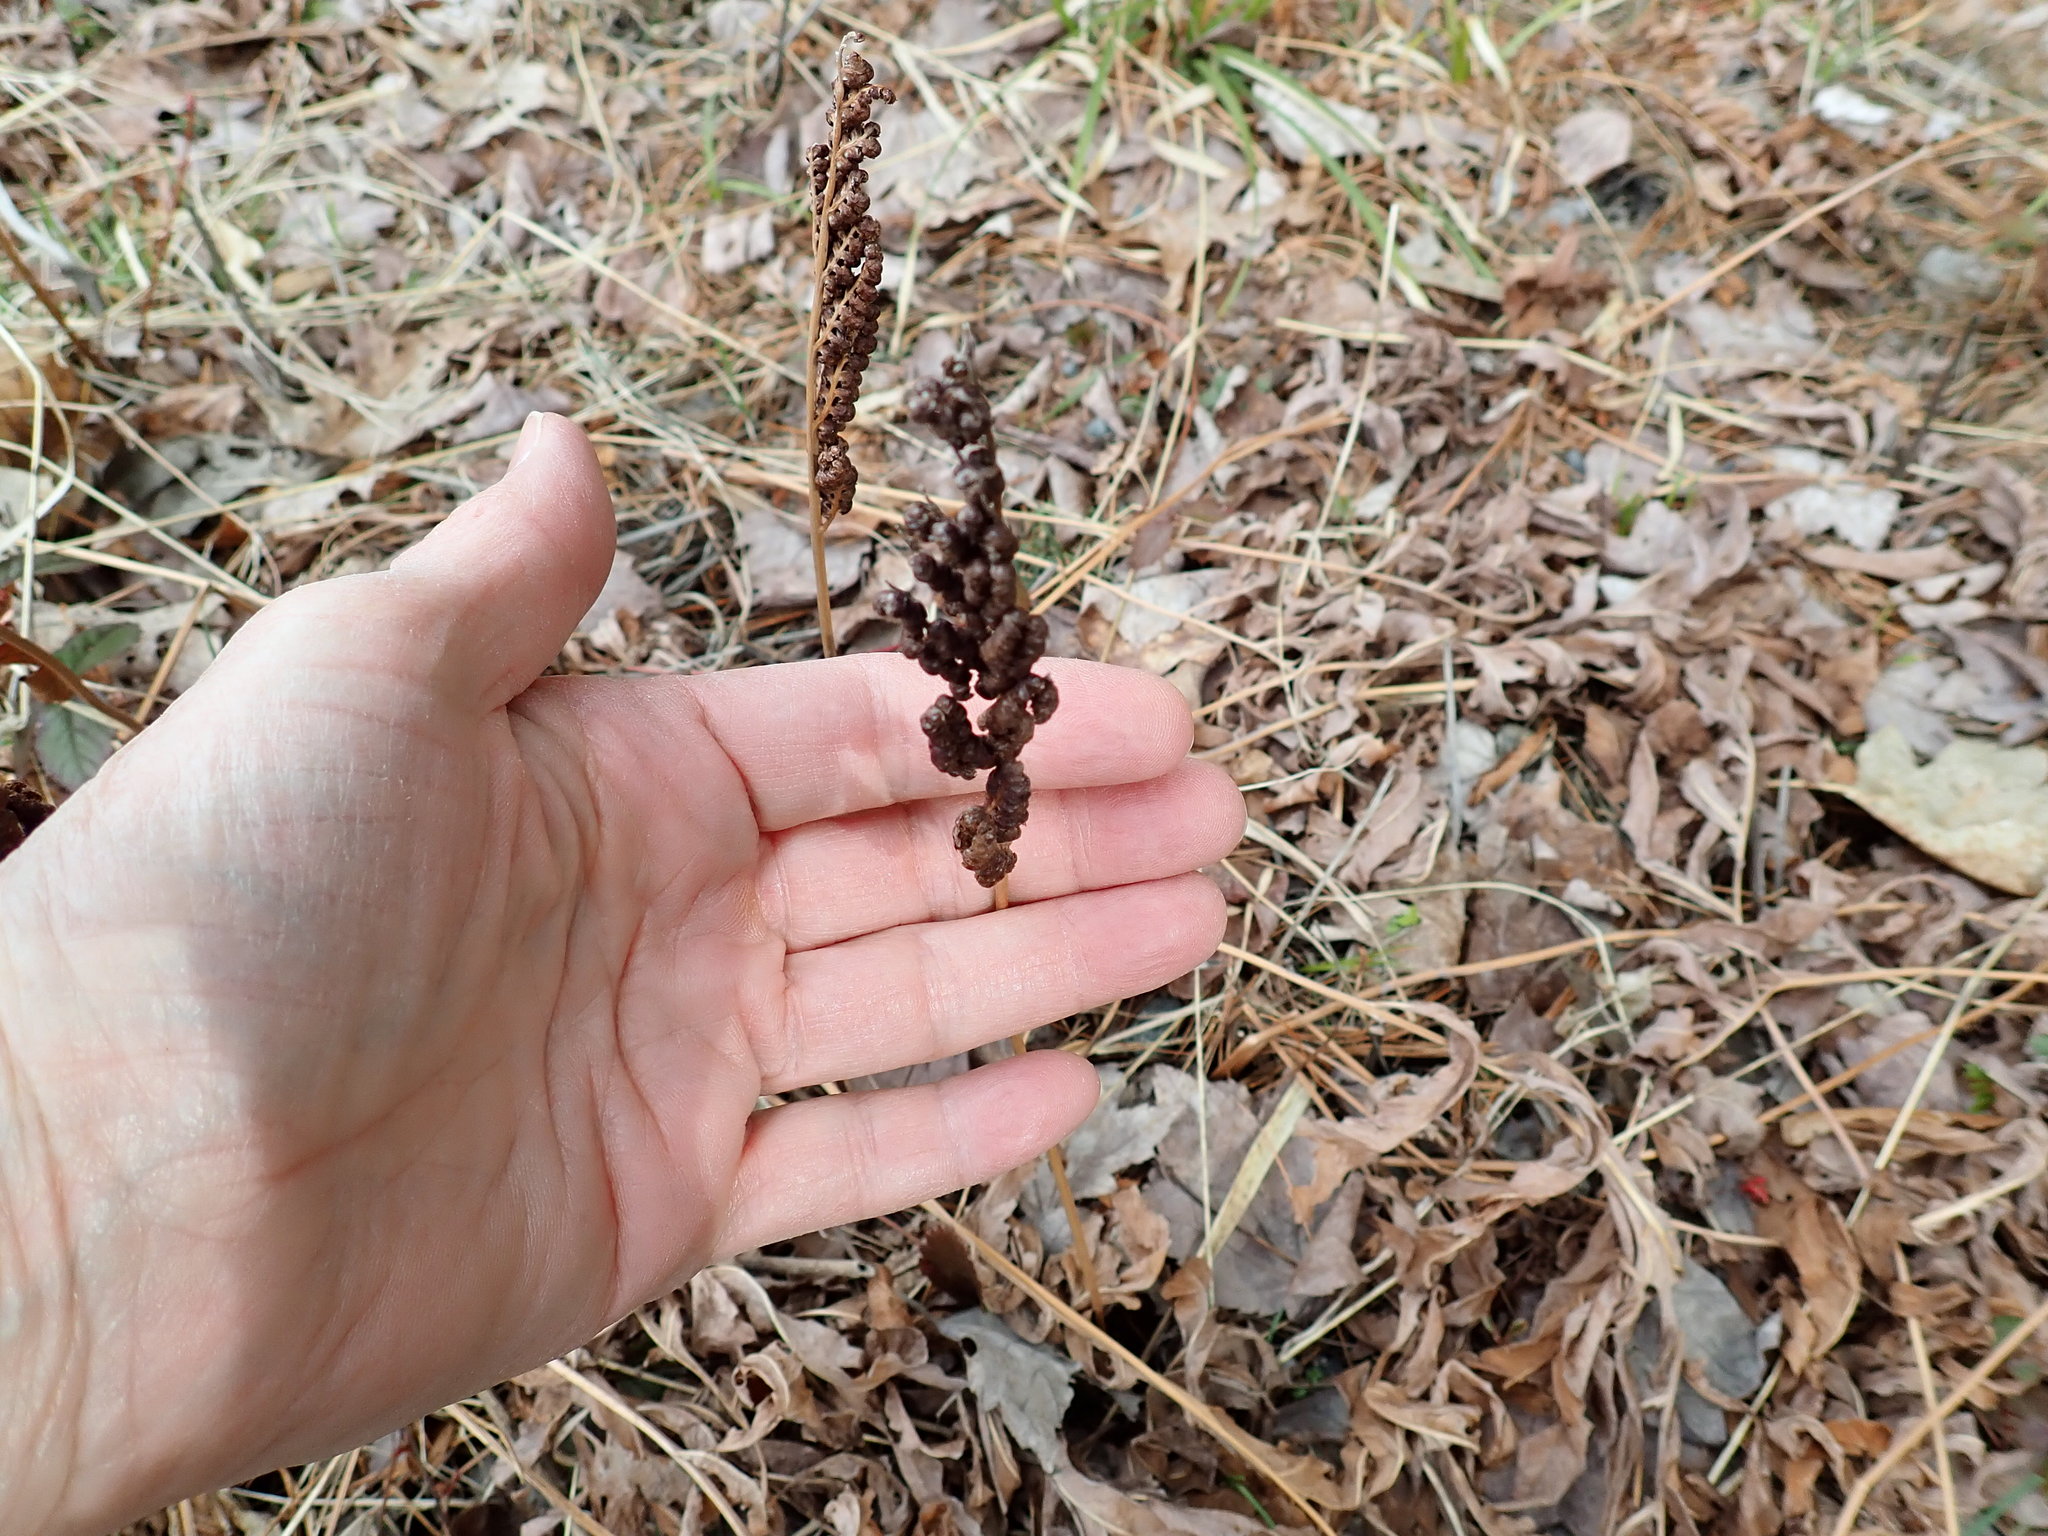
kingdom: Plantae
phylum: Tracheophyta
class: Polypodiopsida
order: Polypodiales
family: Onocleaceae
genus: Onoclea
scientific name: Onoclea sensibilis
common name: Sensitive fern
